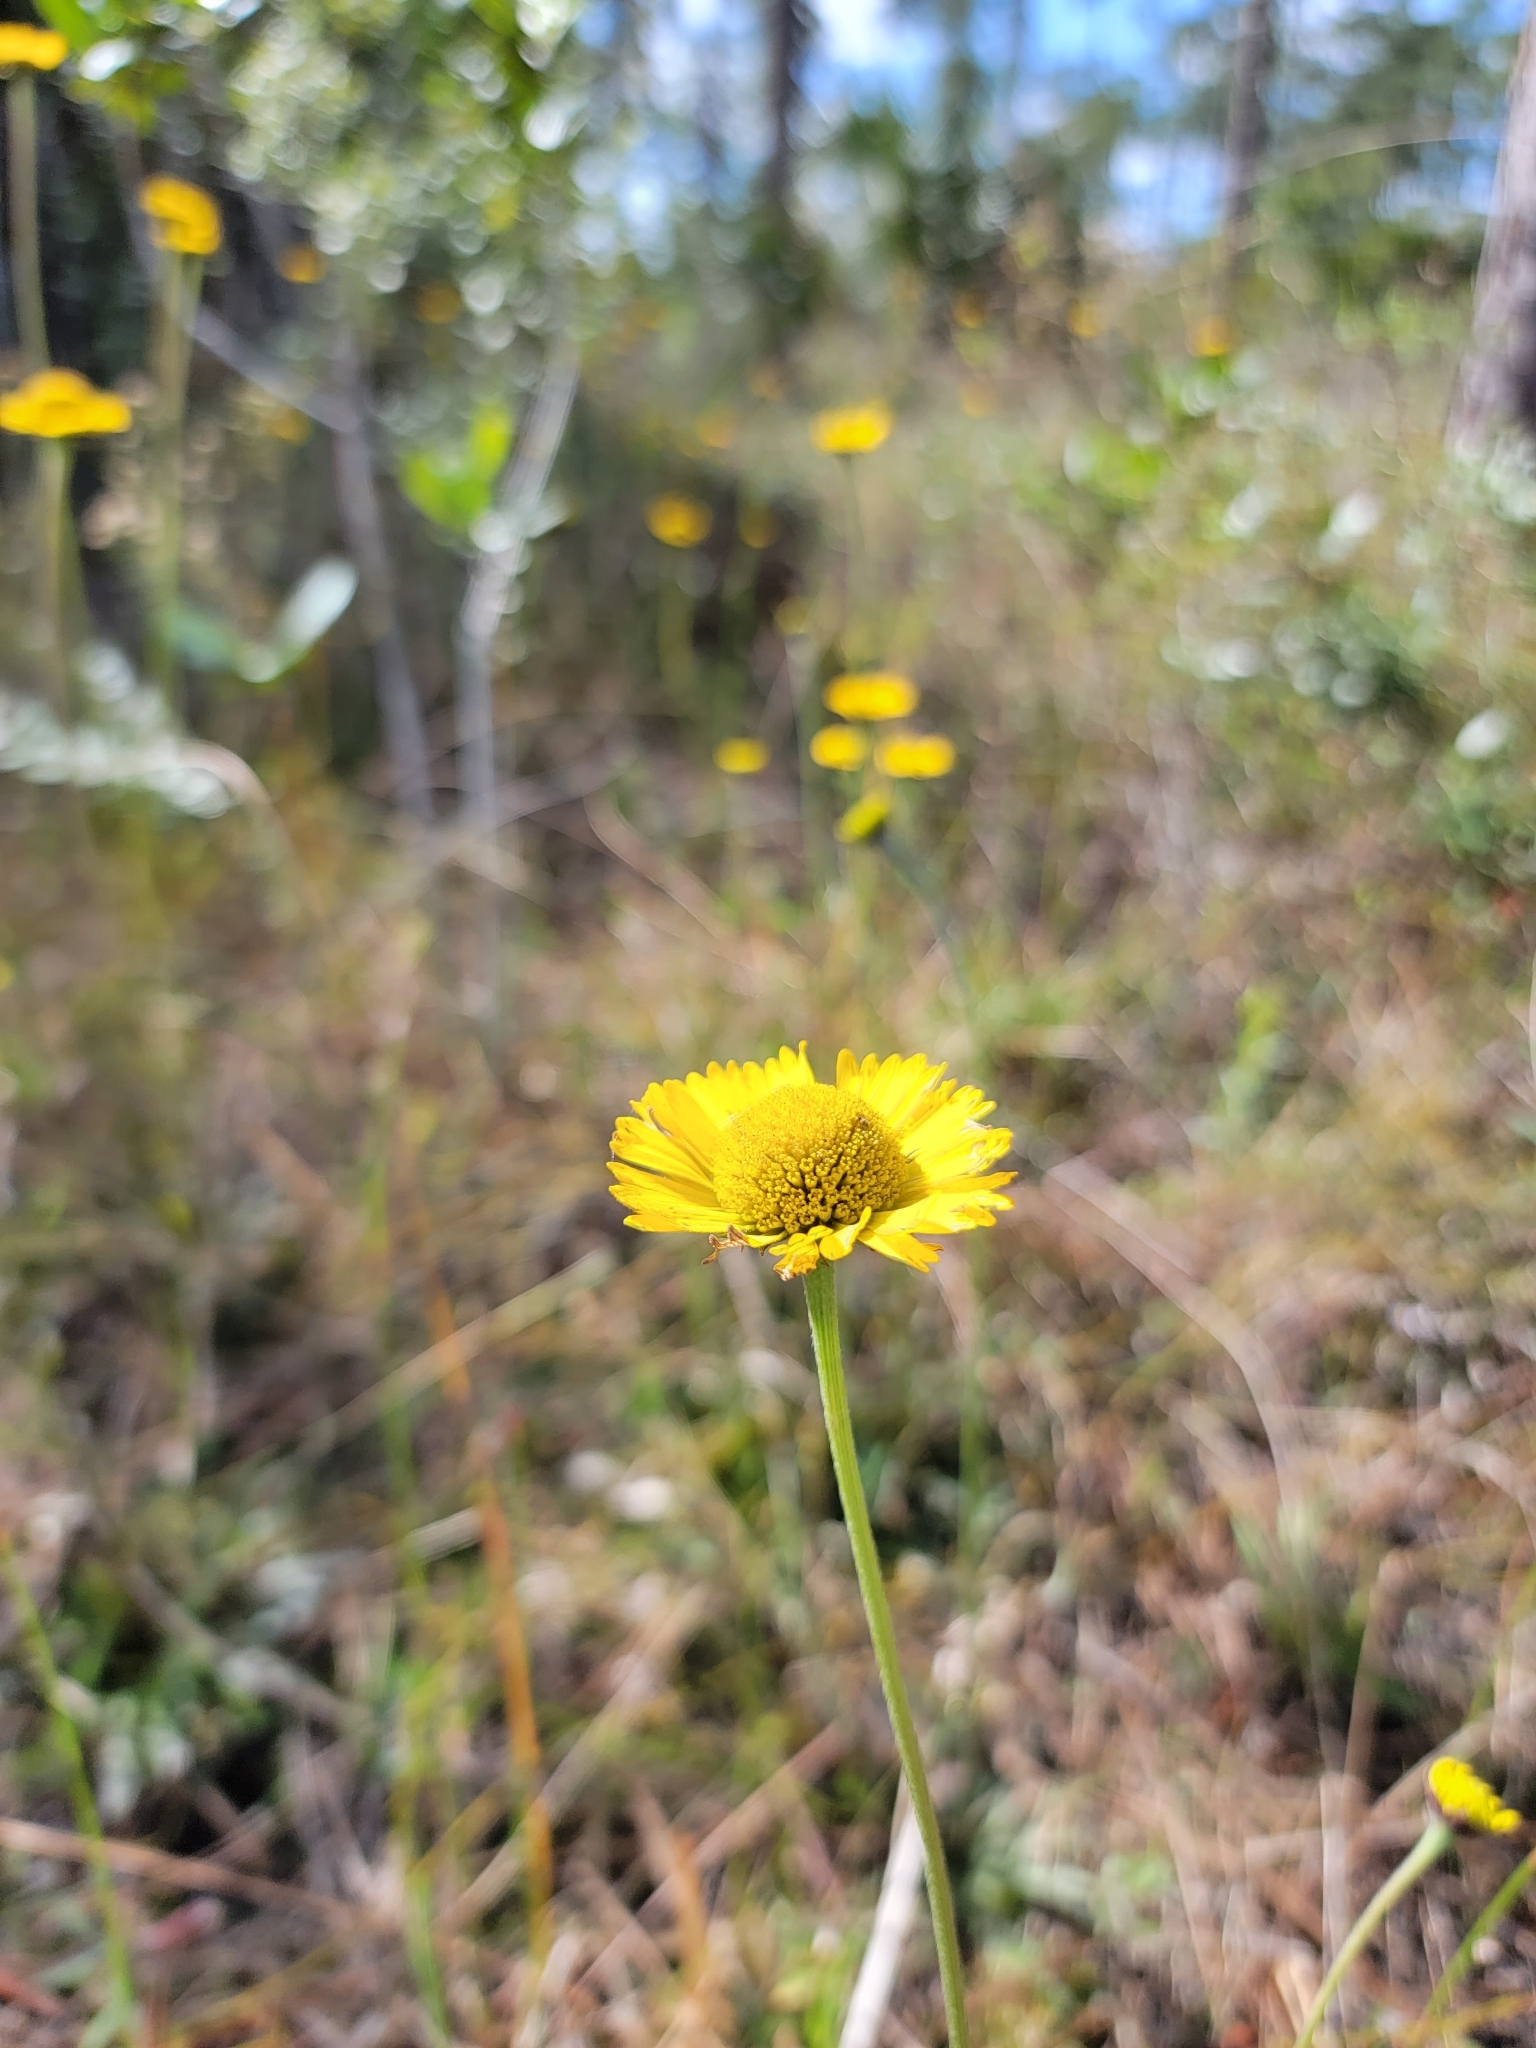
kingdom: Plantae
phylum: Tracheophyta
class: Magnoliopsida
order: Asterales
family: Asteraceae
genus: Helenium
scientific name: Helenium pinnatifidum
